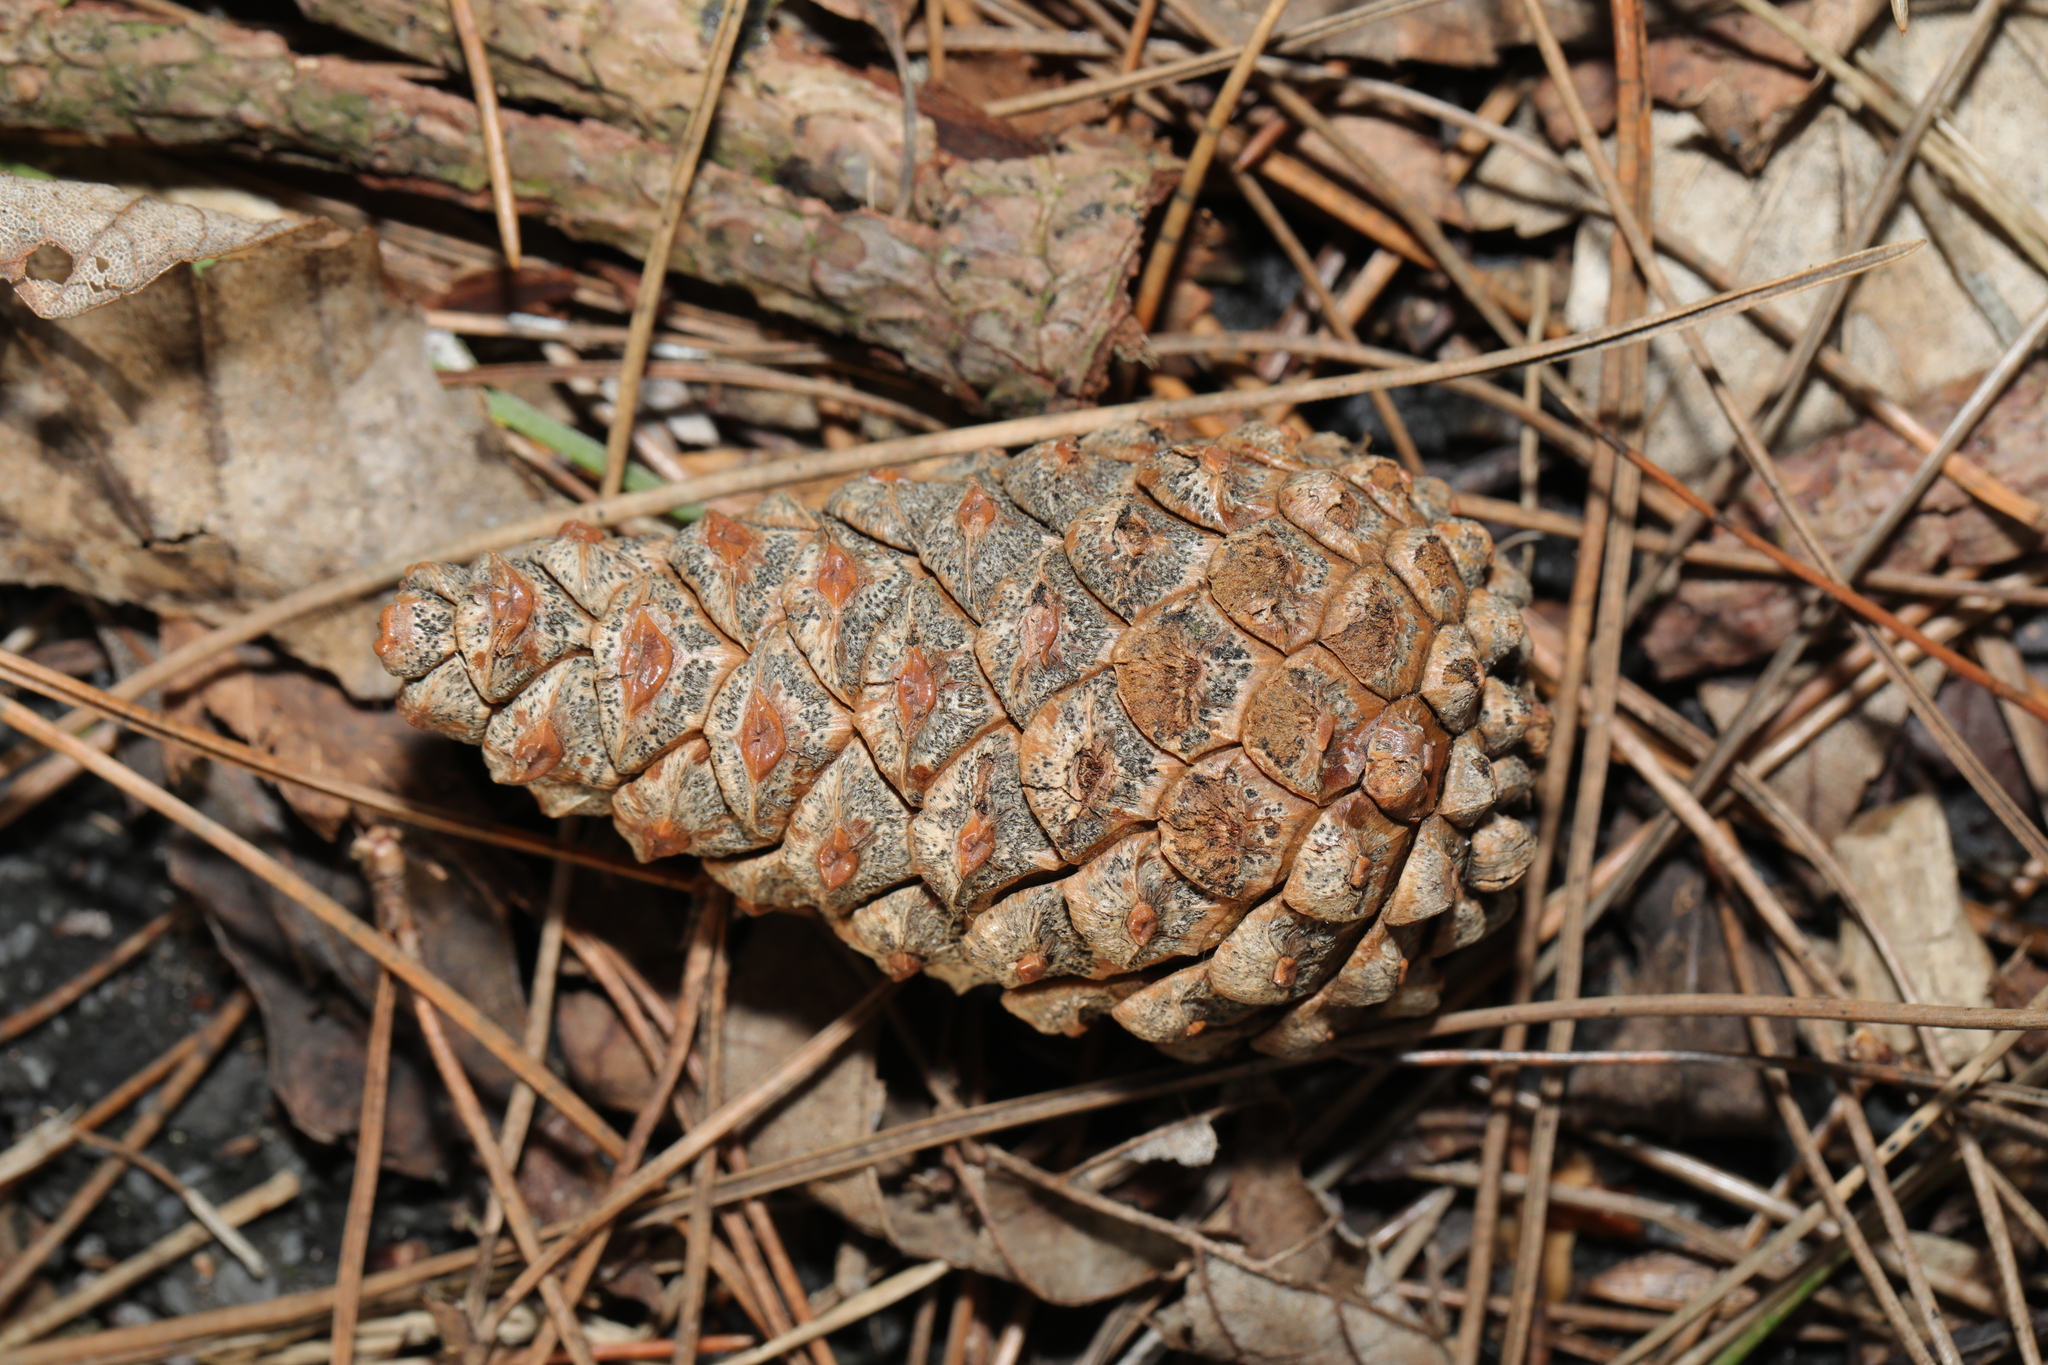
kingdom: Plantae
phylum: Tracheophyta
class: Pinopsida
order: Pinales
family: Pinaceae
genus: Pinus
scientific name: Pinus sylvestris
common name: Scots pine
